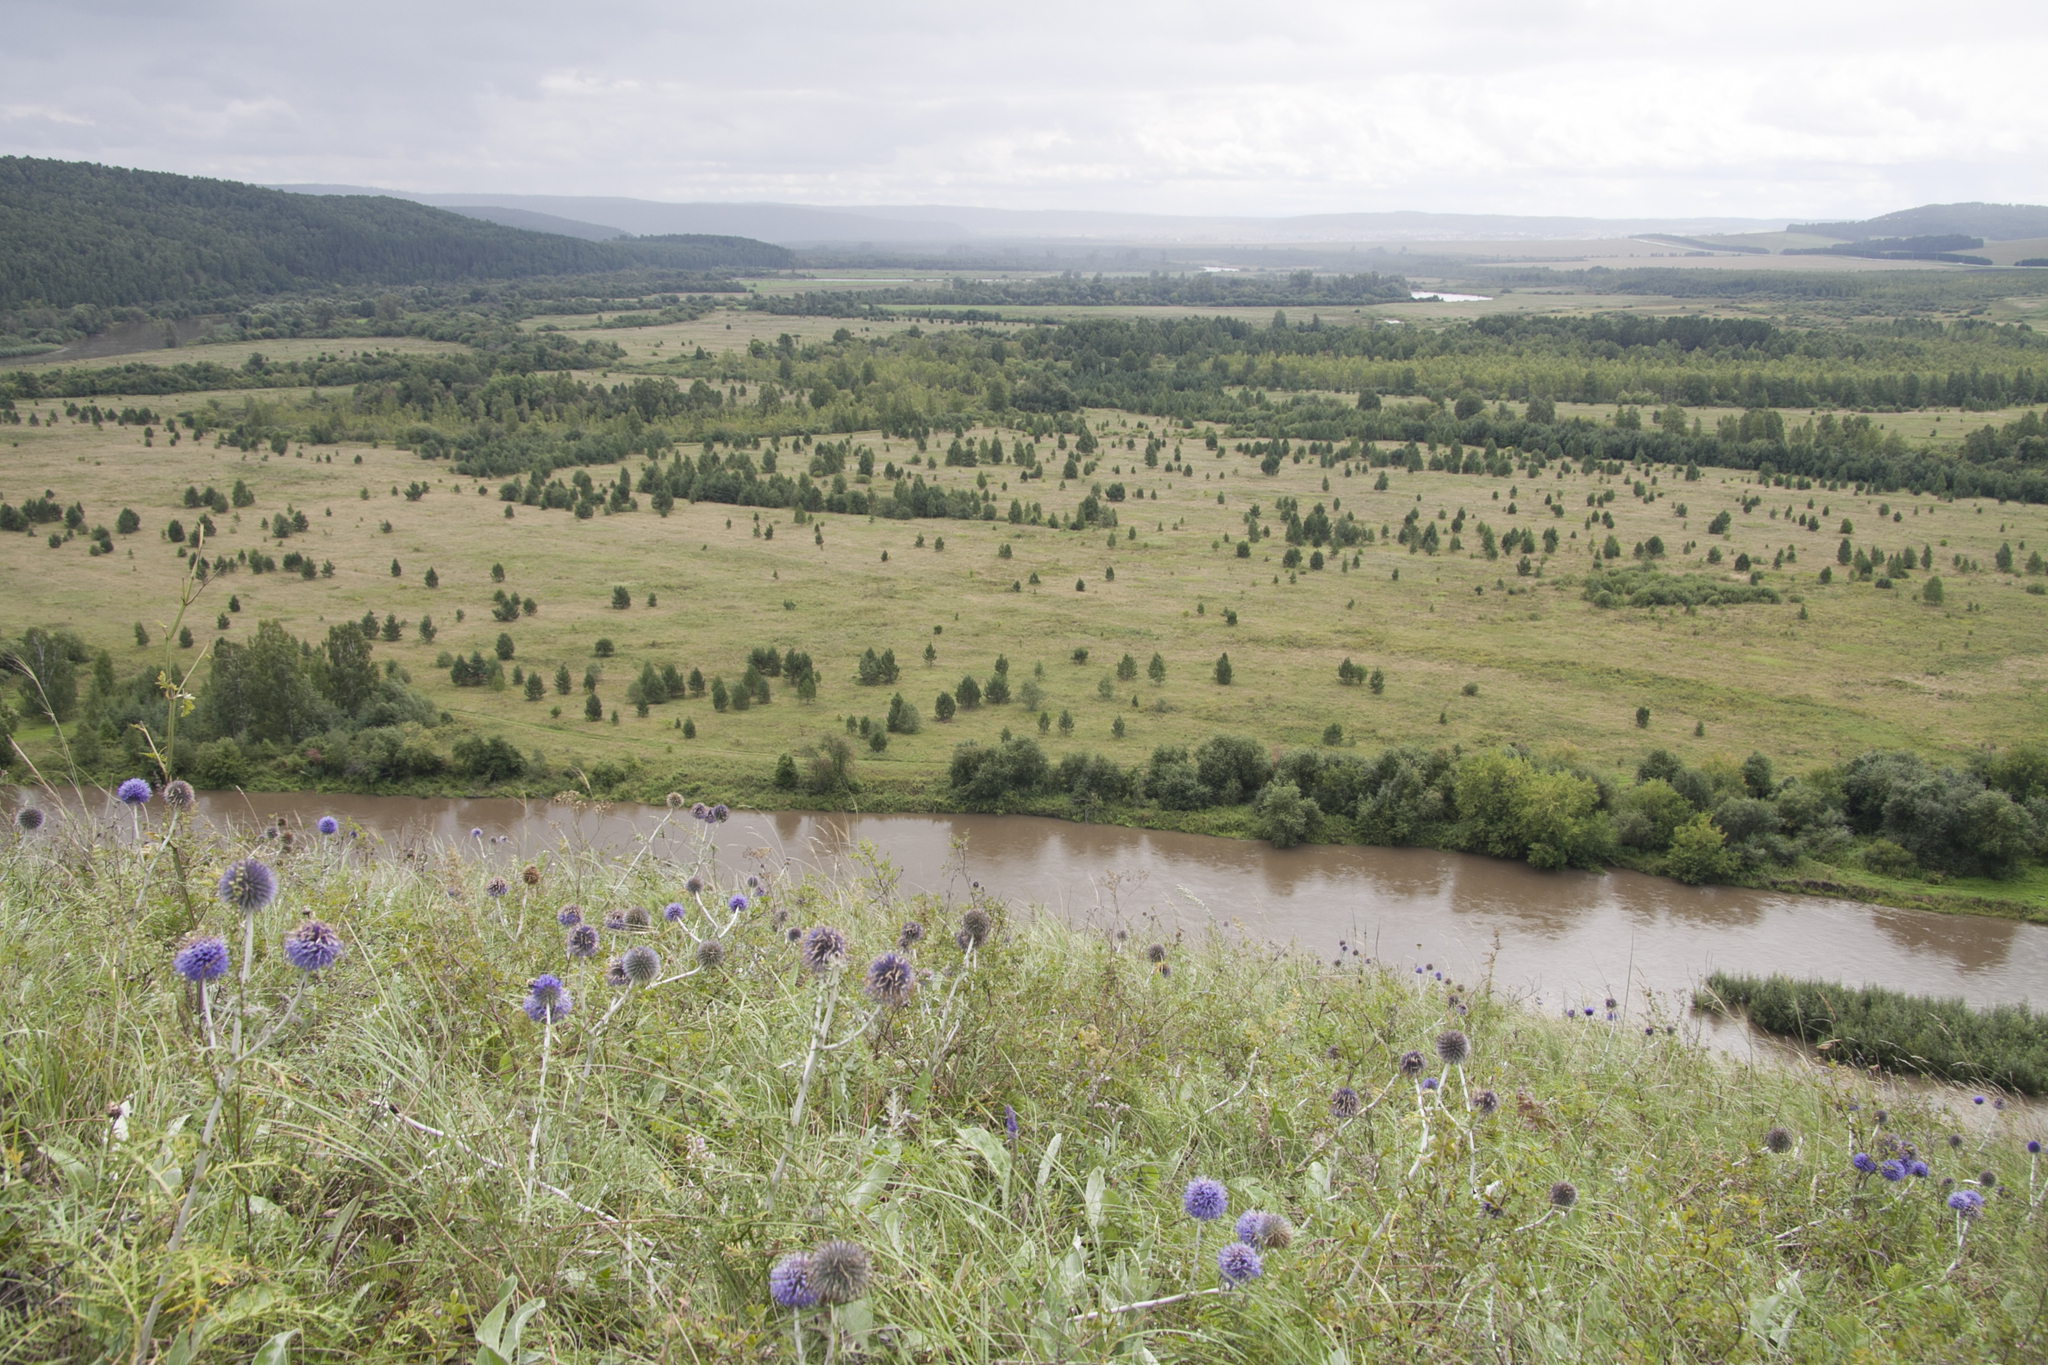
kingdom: Plantae
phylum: Tracheophyta
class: Magnoliopsida
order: Asterales
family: Asteraceae
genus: Echinops
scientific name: Echinops ritro
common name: Globe thistle
